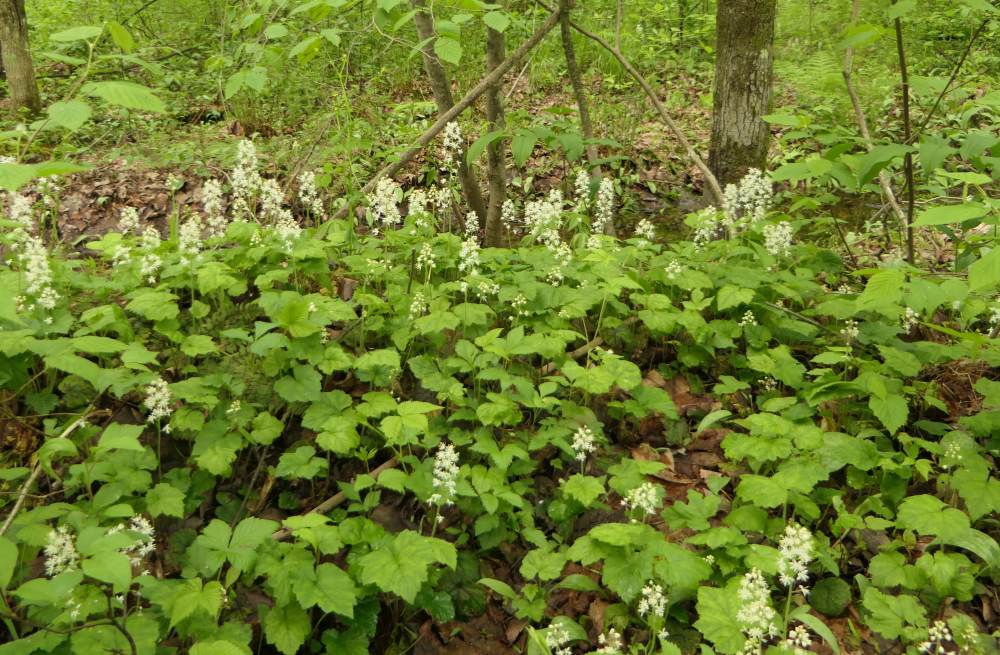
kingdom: Plantae
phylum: Tracheophyta
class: Magnoliopsida
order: Saxifragales
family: Saxifragaceae
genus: Tiarella
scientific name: Tiarella stolonifera
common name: Stoloniferous foamflower
